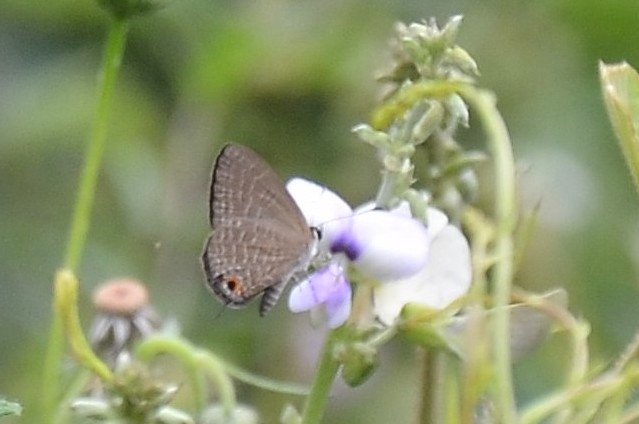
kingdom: Animalia
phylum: Arthropoda
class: Insecta
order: Lepidoptera
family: Lycaenidae
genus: Jamides
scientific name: Jamides bochus
